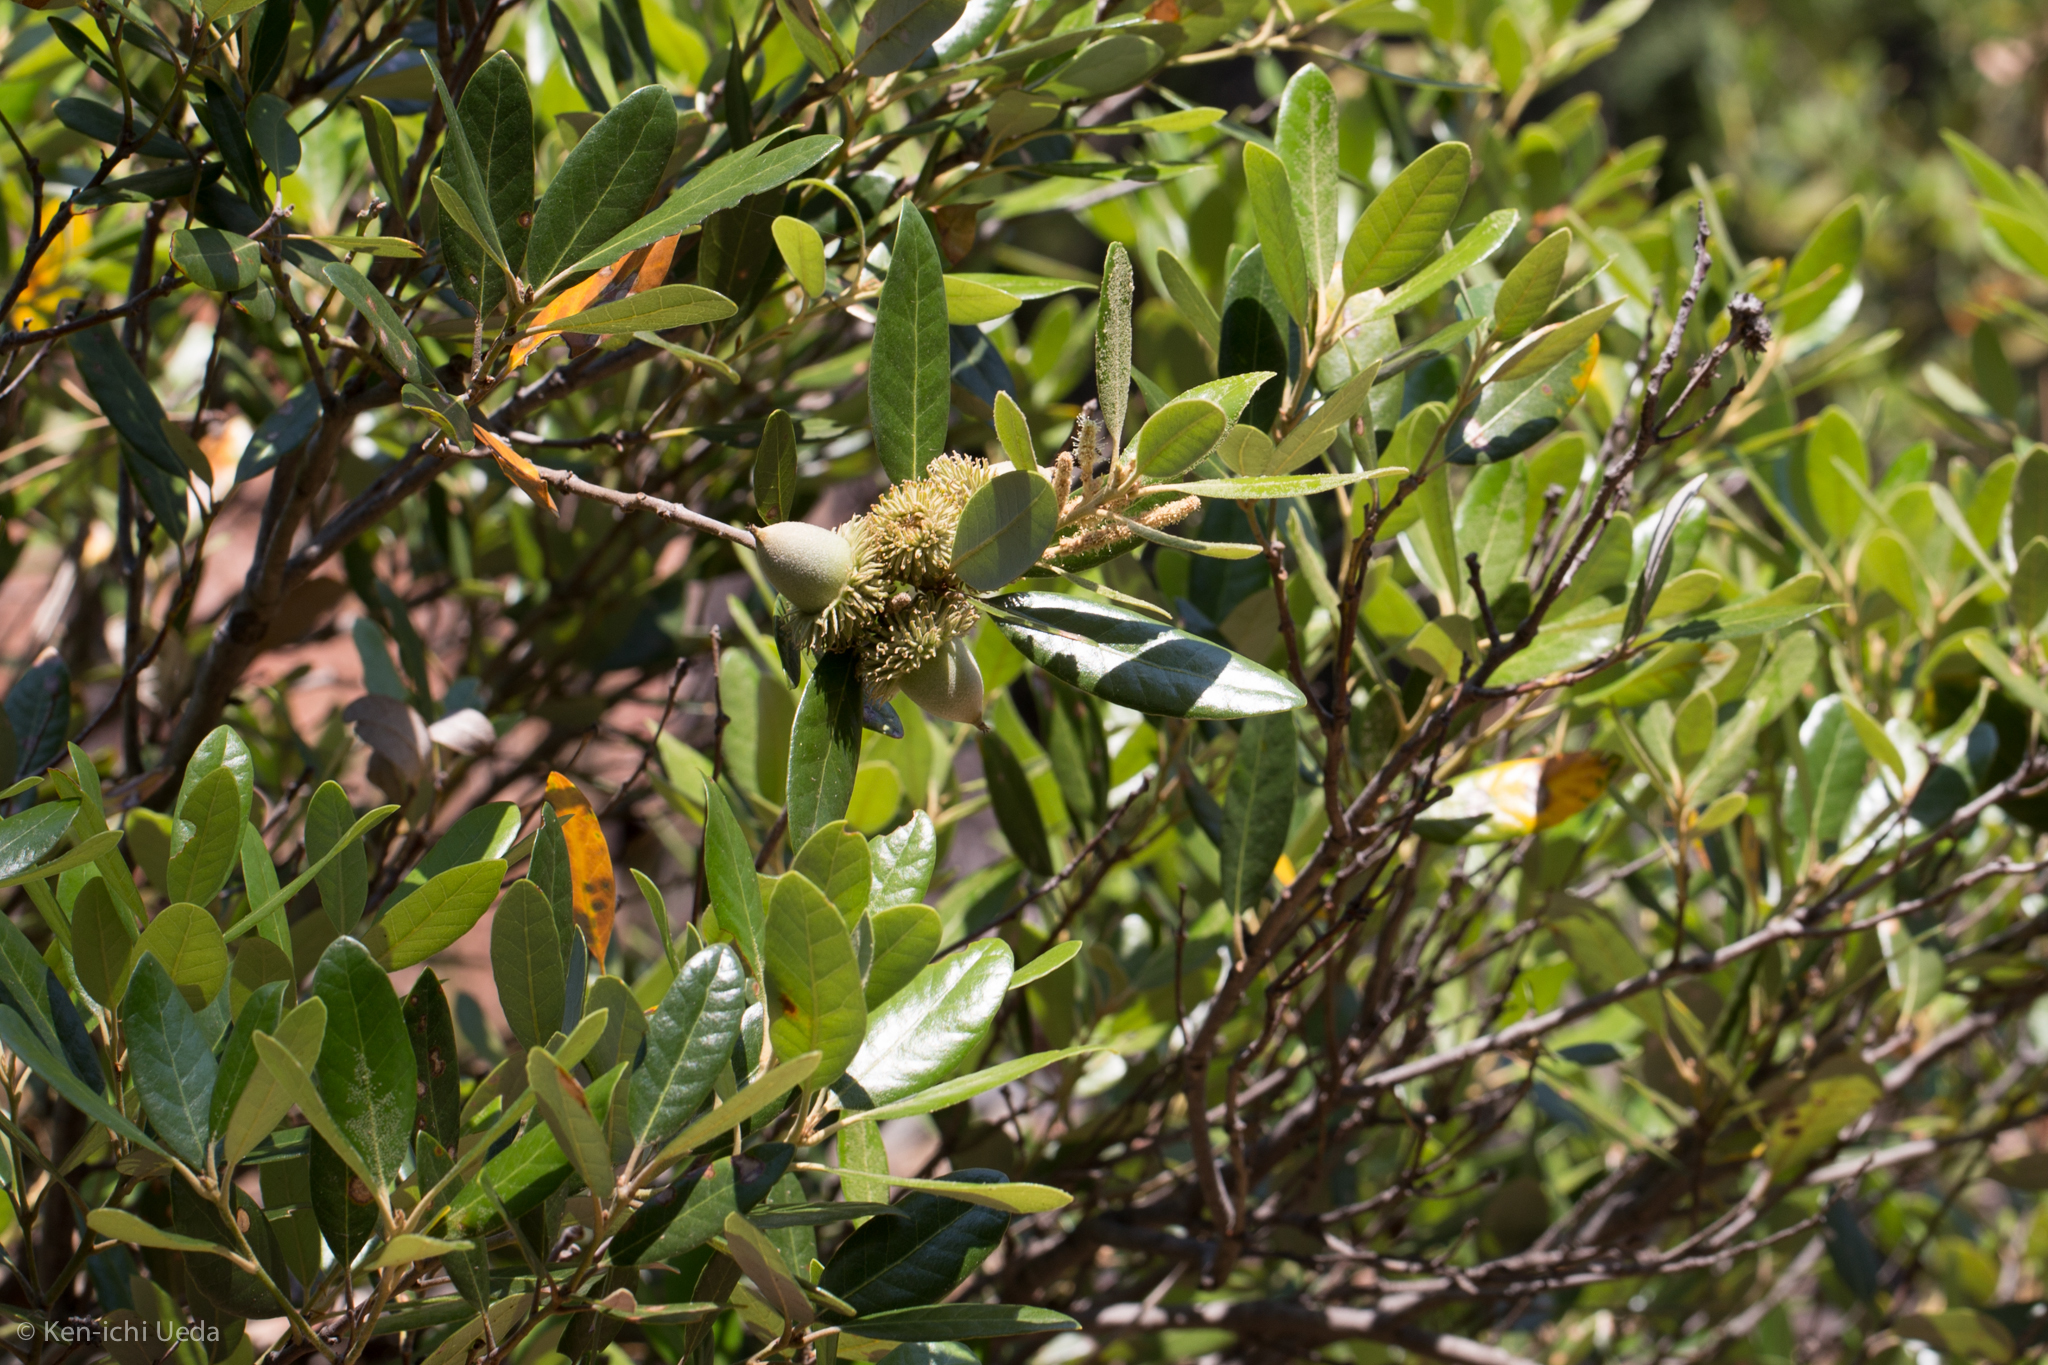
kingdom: Plantae
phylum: Tracheophyta
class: Magnoliopsida
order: Fagales
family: Fagaceae
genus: Notholithocarpus
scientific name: Notholithocarpus densiflorus
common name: Tan bark oak
